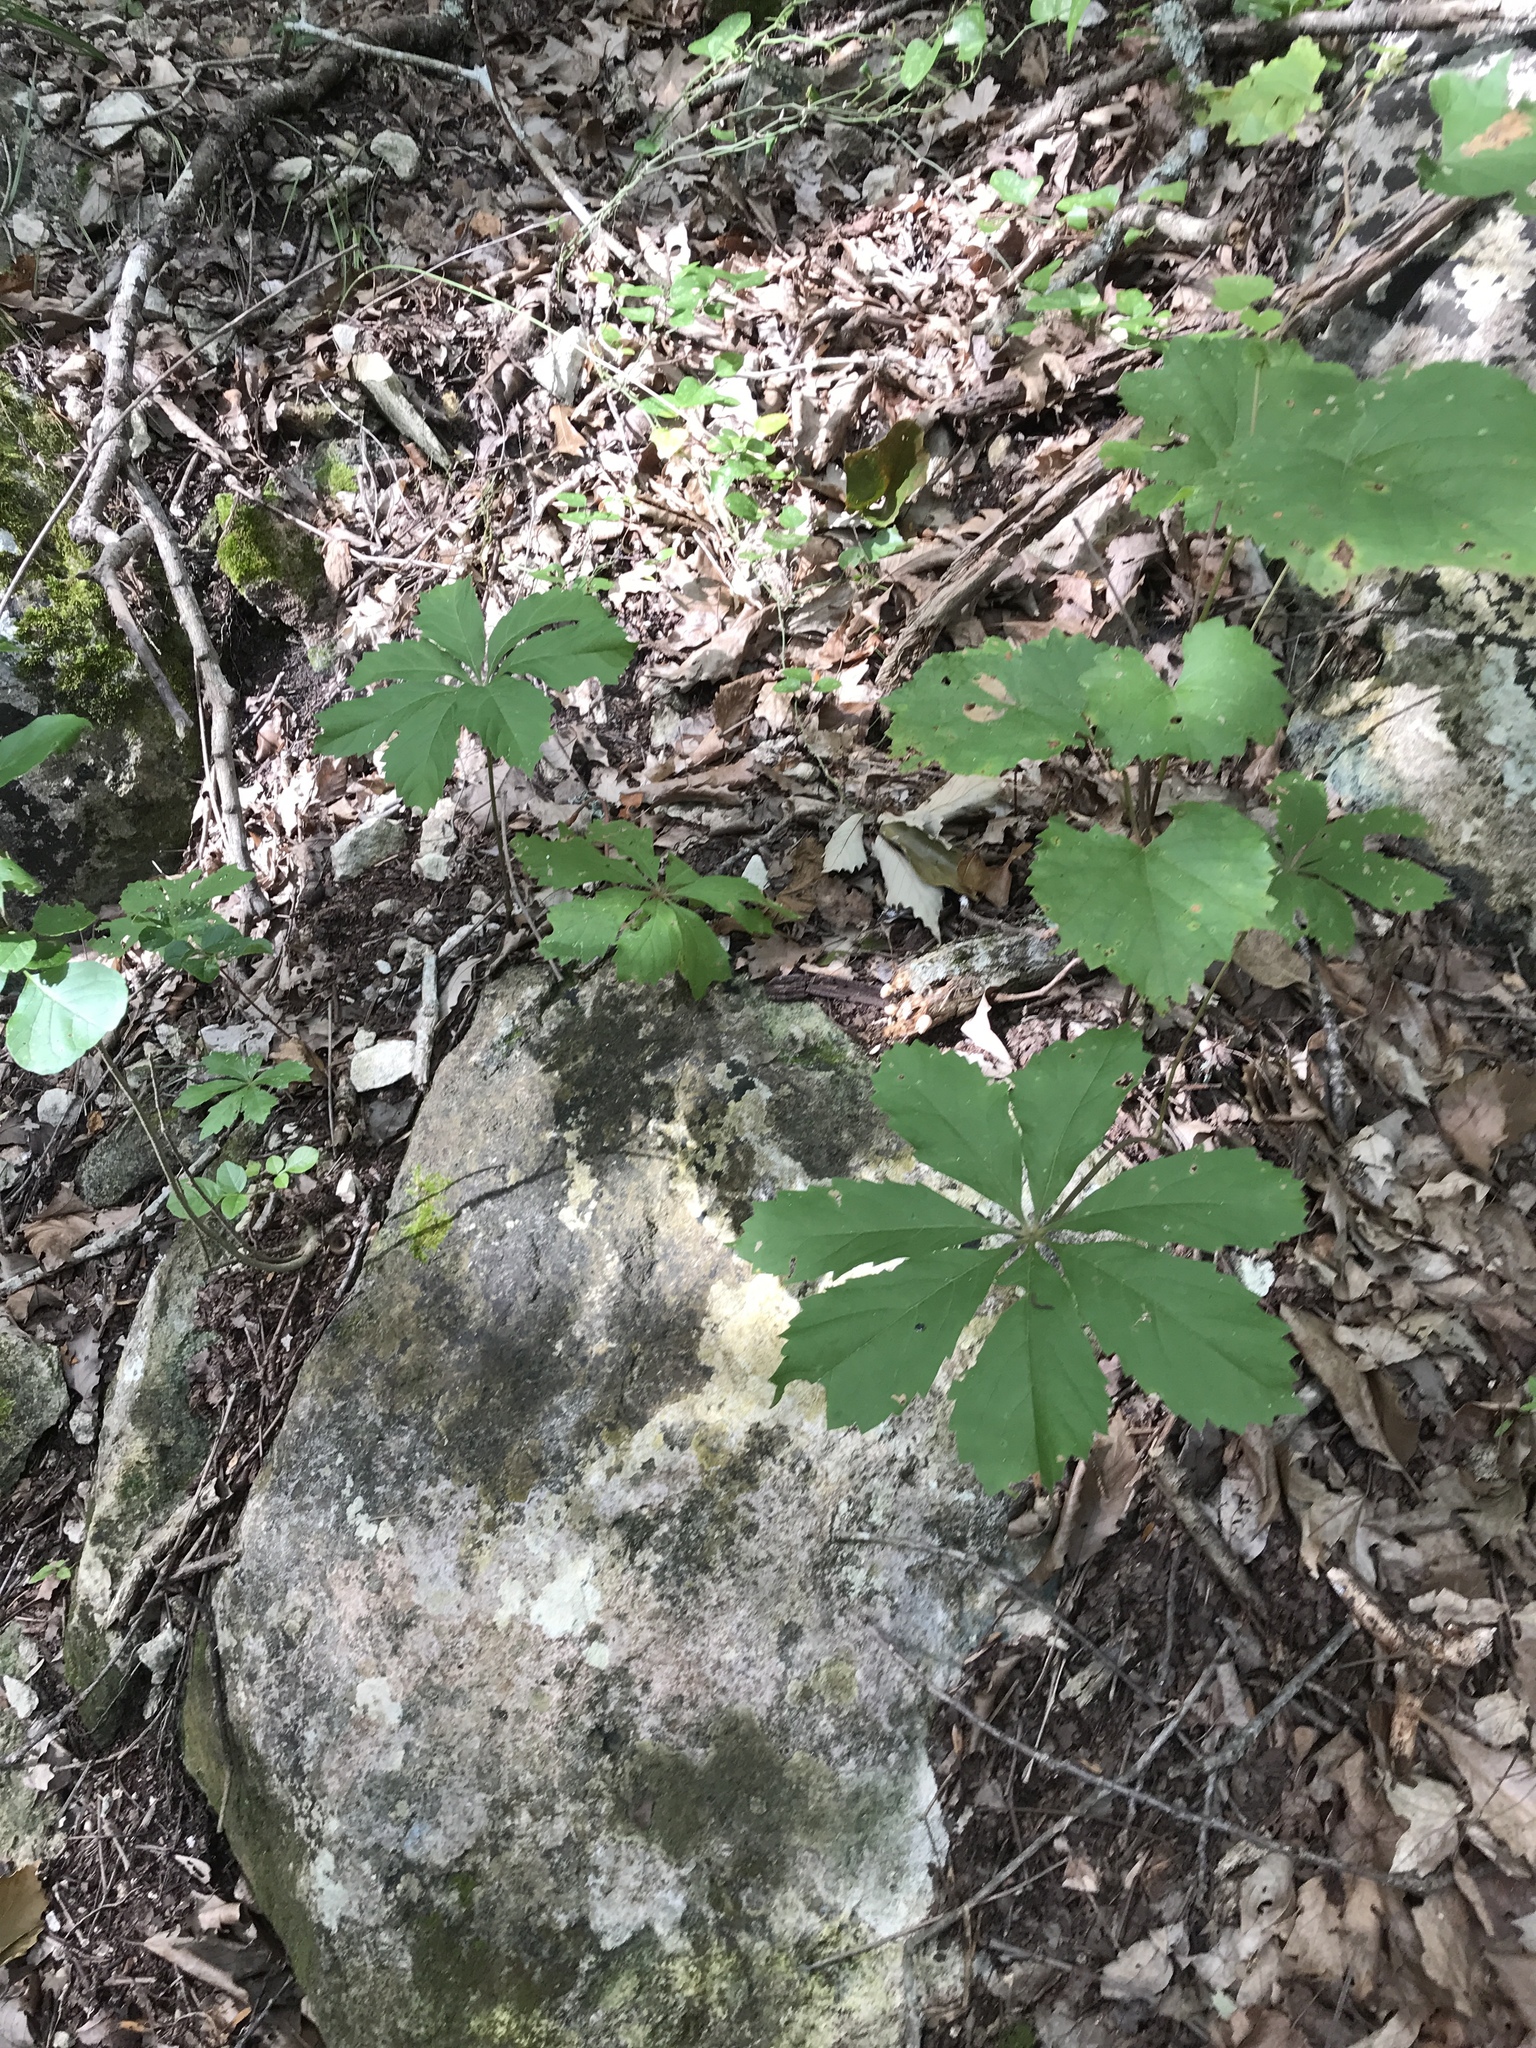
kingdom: Plantae
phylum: Tracheophyta
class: Magnoliopsida
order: Vitales
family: Vitaceae
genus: Parthenocissus
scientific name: Parthenocissus heptaphylla
